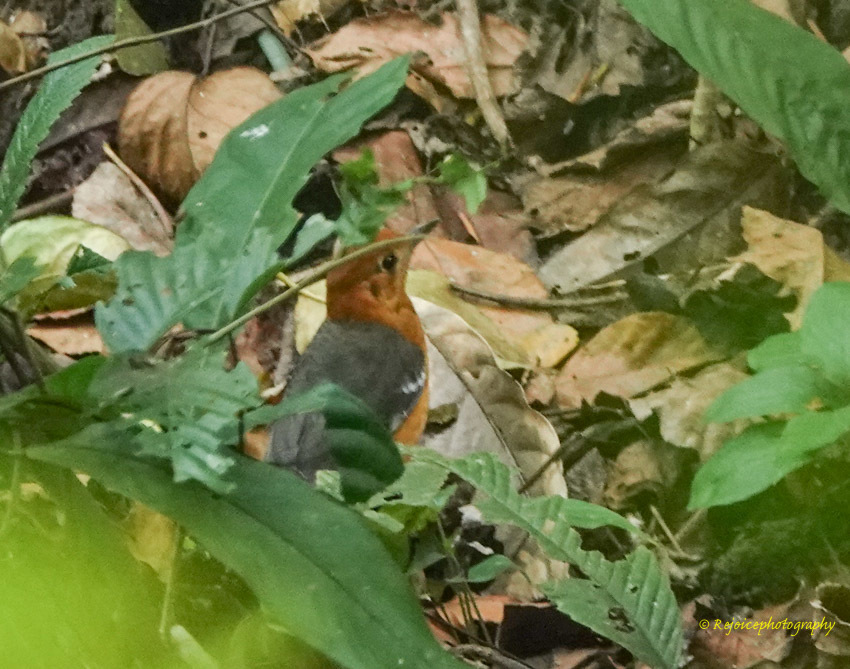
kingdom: Animalia
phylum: Chordata
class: Aves
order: Passeriformes
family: Turdidae
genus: Geokichla
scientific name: Geokichla citrina
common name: Orange-headed thrush
